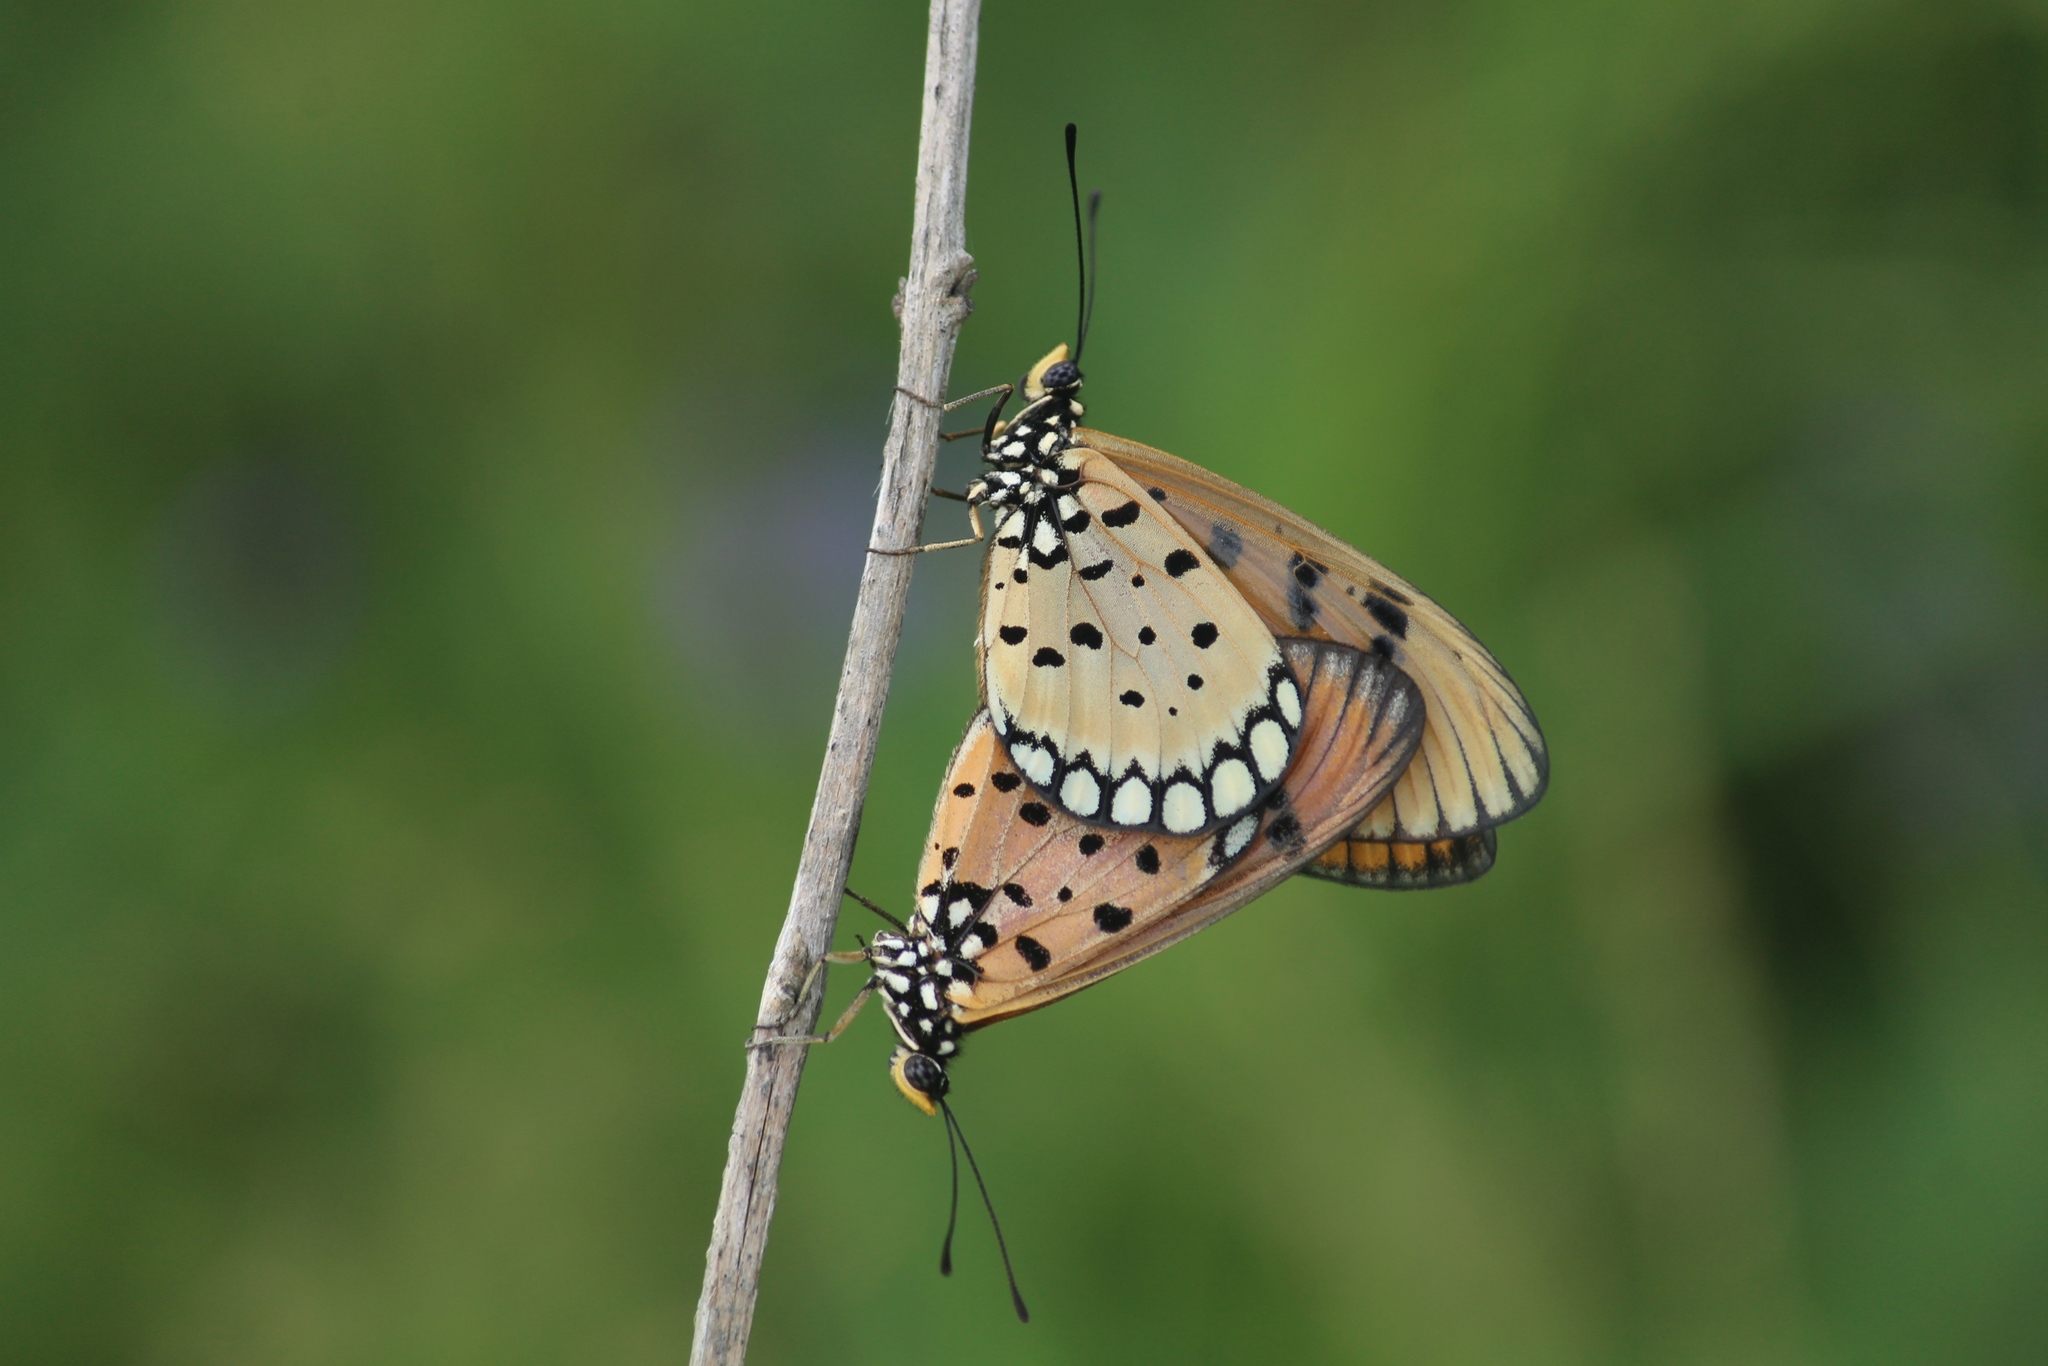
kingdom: Animalia
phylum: Arthropoda
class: Insecta
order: Lepidoptera
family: Nymphalidae
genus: Acraea
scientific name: Acraea terpsicore
